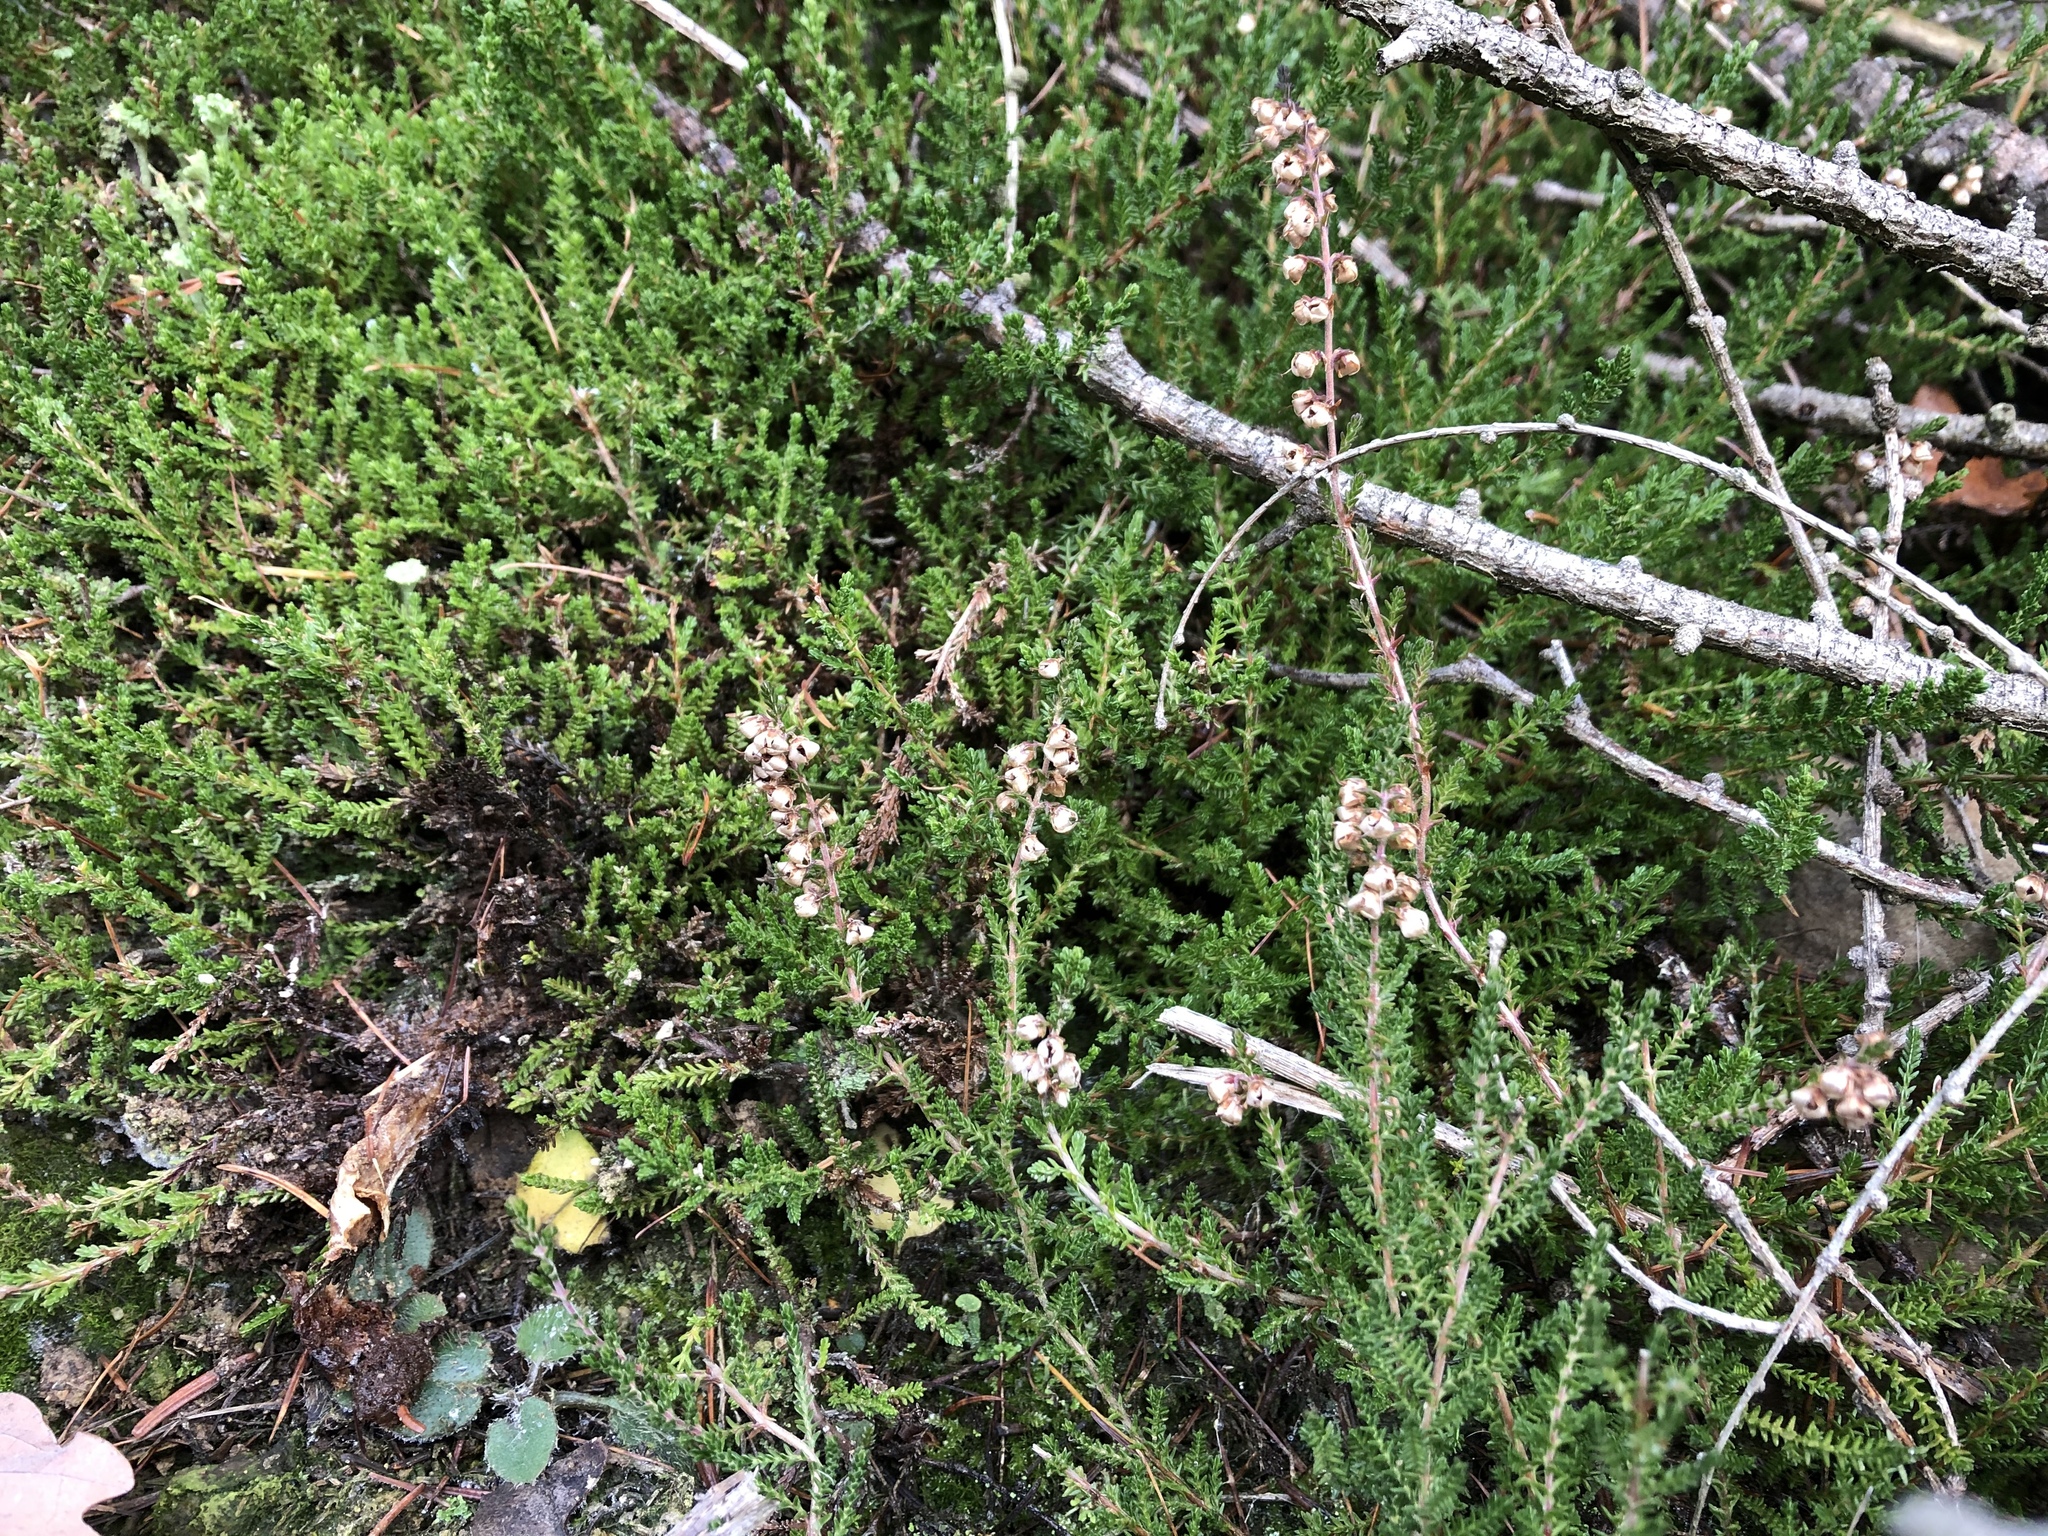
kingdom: Plantae
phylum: Tracheophyta
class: Magnoliopsida
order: Ericales
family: Ericaceae
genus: Calluna
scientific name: Calluna vulgaris
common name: Heather
